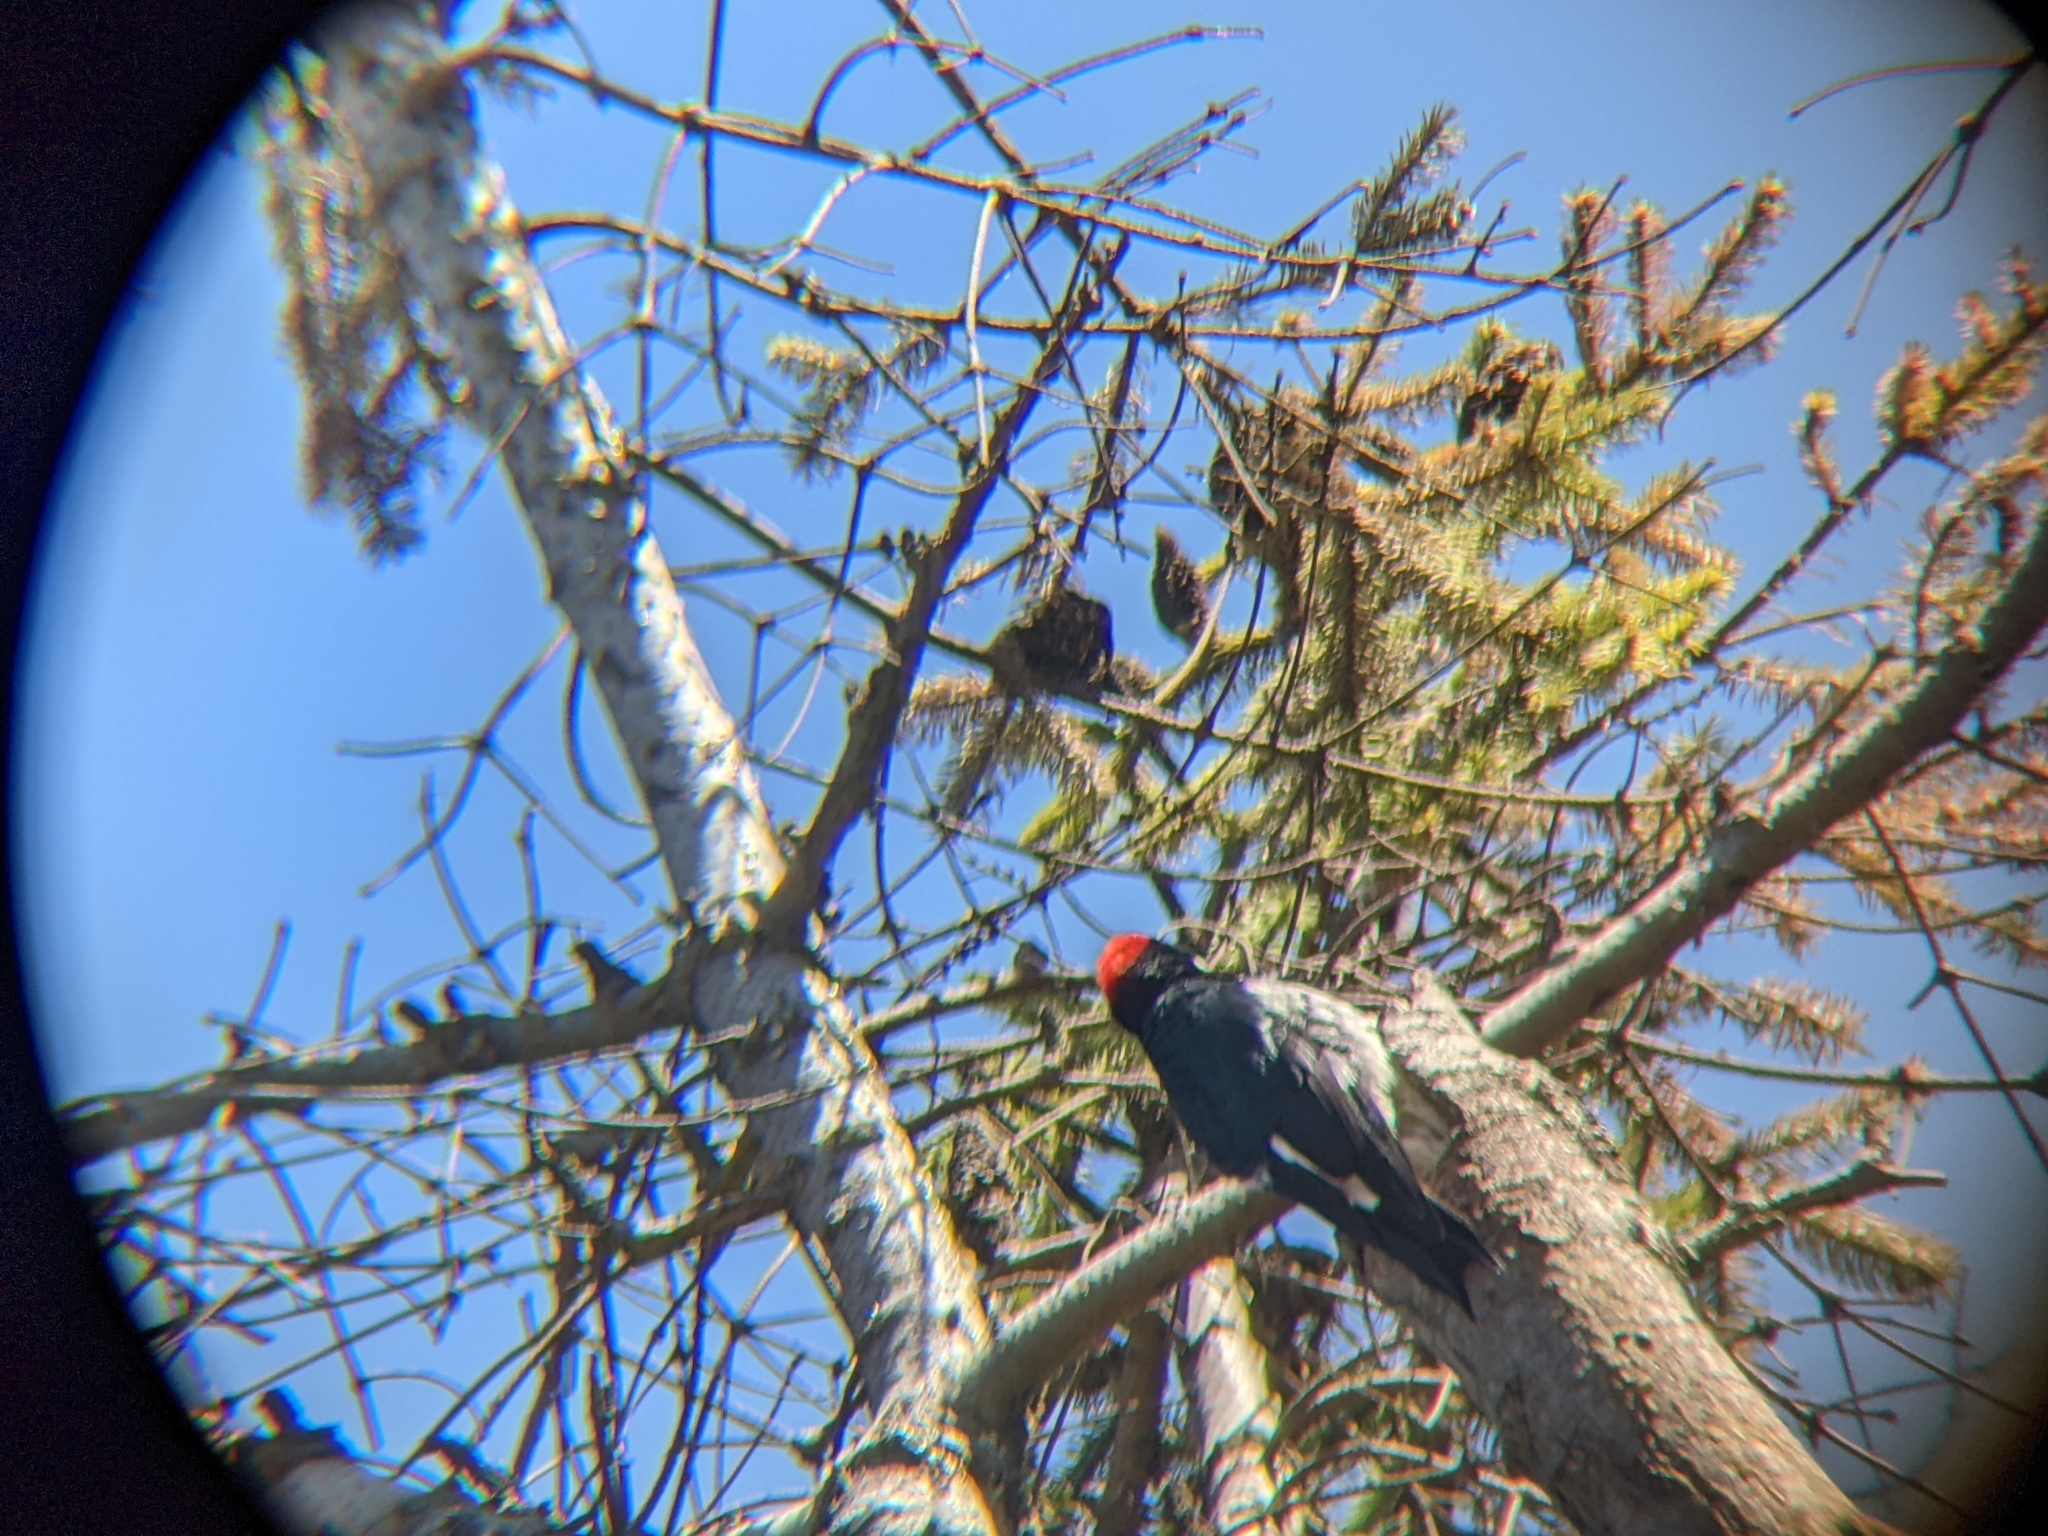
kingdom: Animalia
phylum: Chordata
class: Aves
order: Piciformes
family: Picidae
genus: Melanerpes
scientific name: Melanerpes formicivorus
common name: Acorn woodpecker
